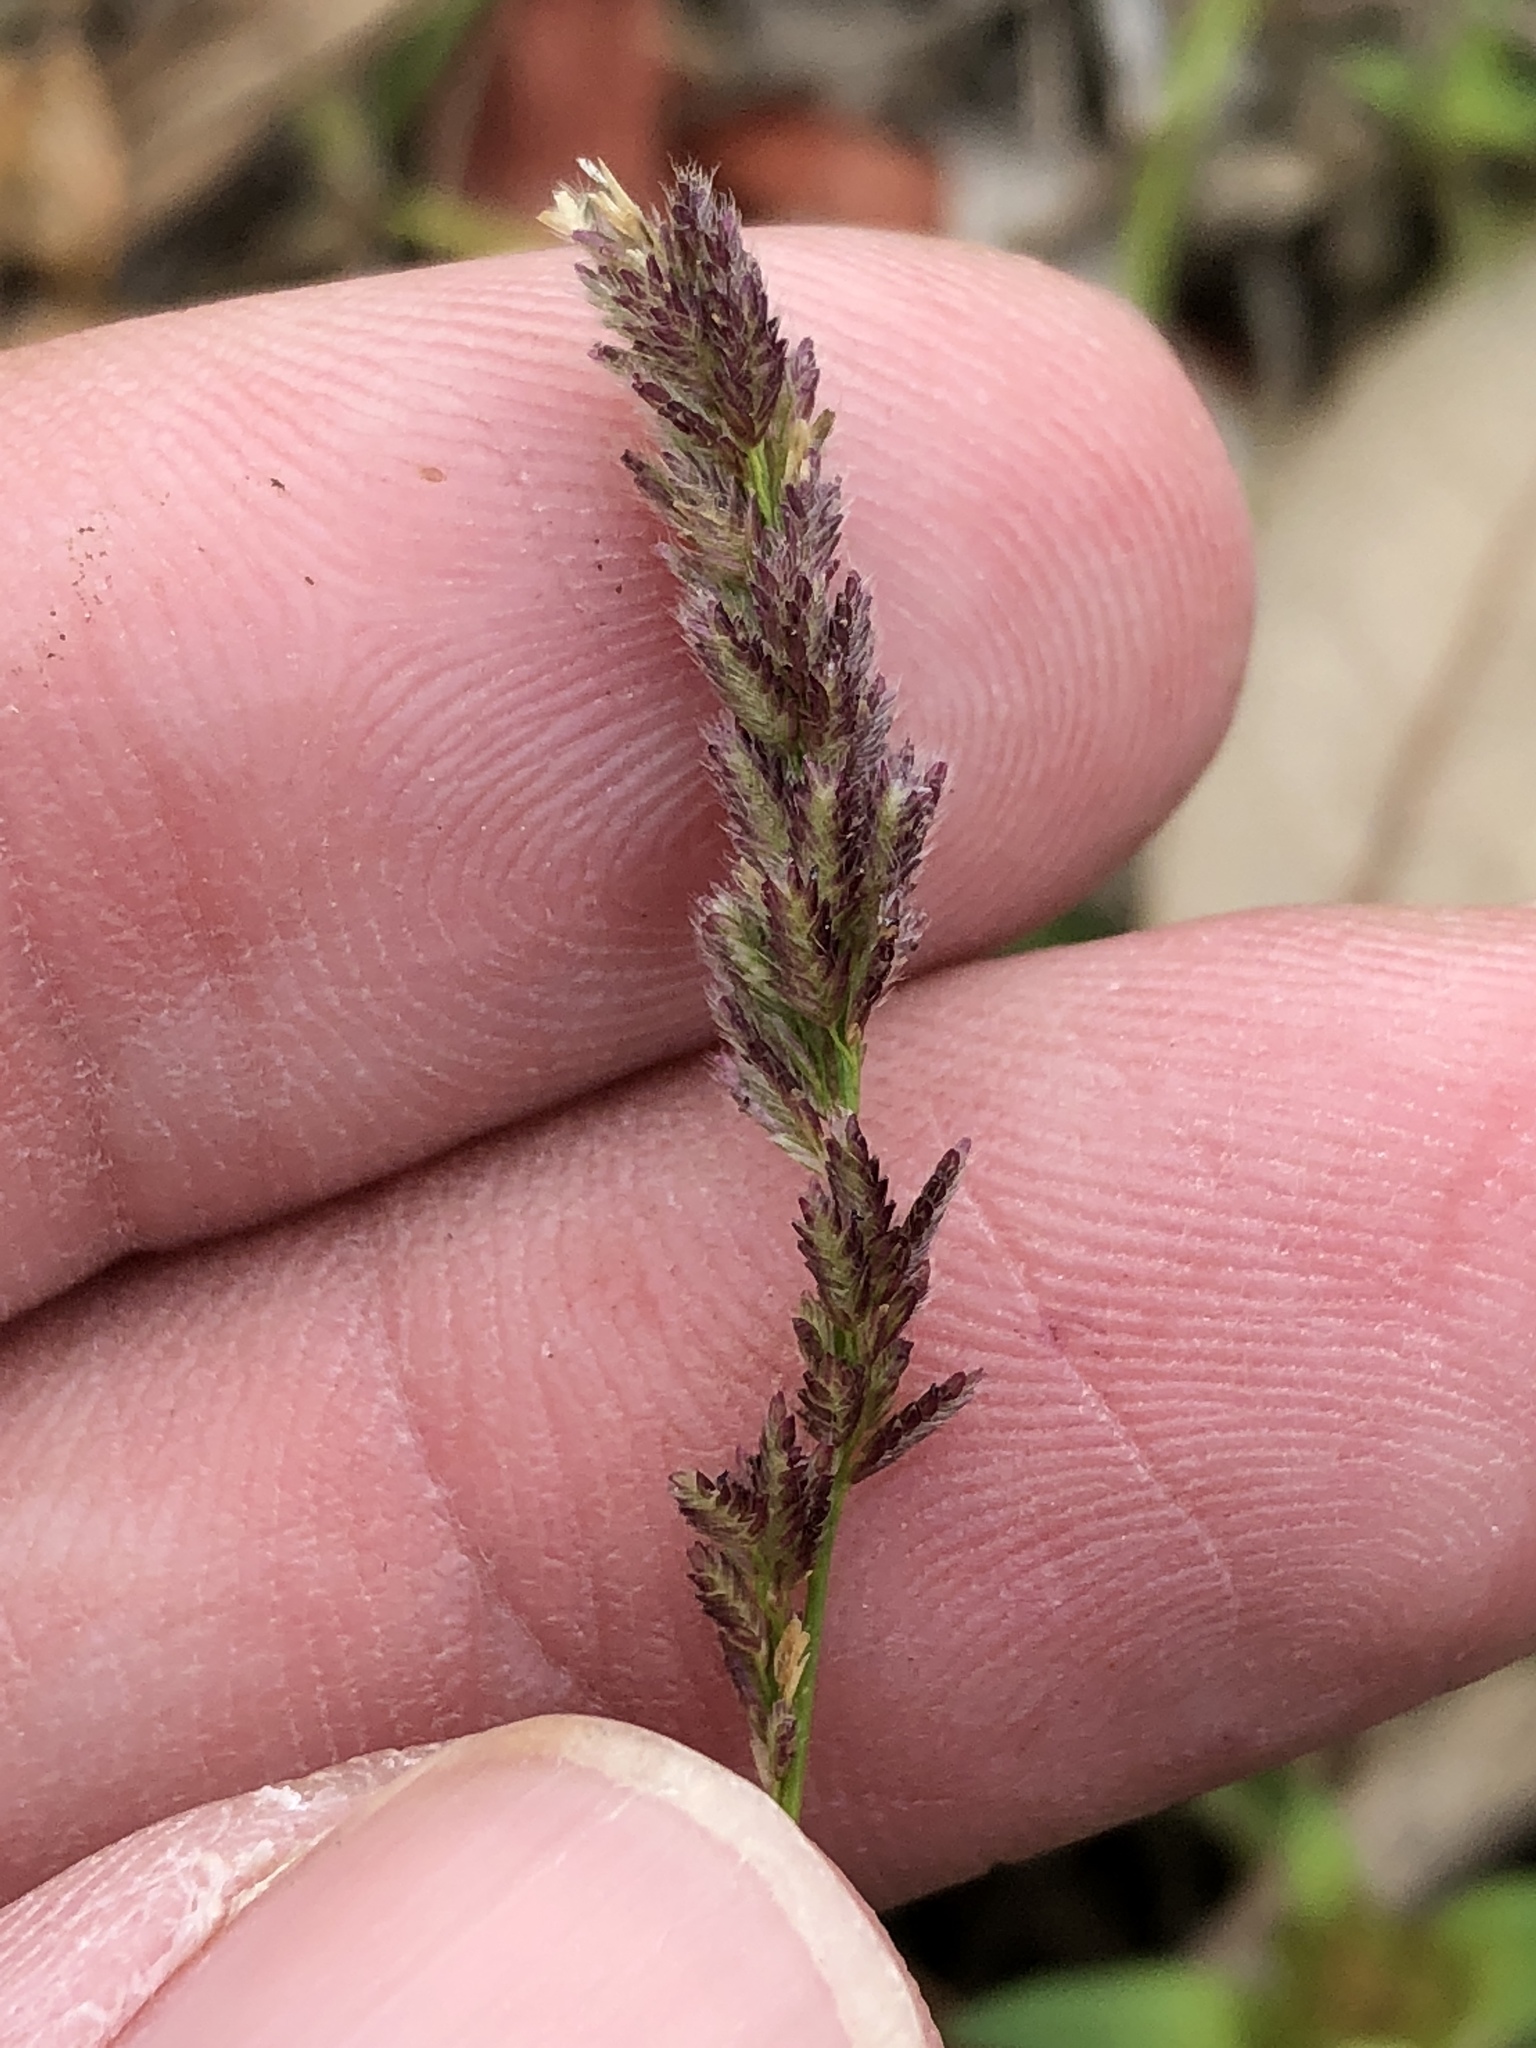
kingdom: Plantae
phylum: Tracheophyta
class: Liliopsida
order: Poales
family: Poaceae
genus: Eragrostis
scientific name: Eragrostis ciliaris
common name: Gophertail lovegrass
